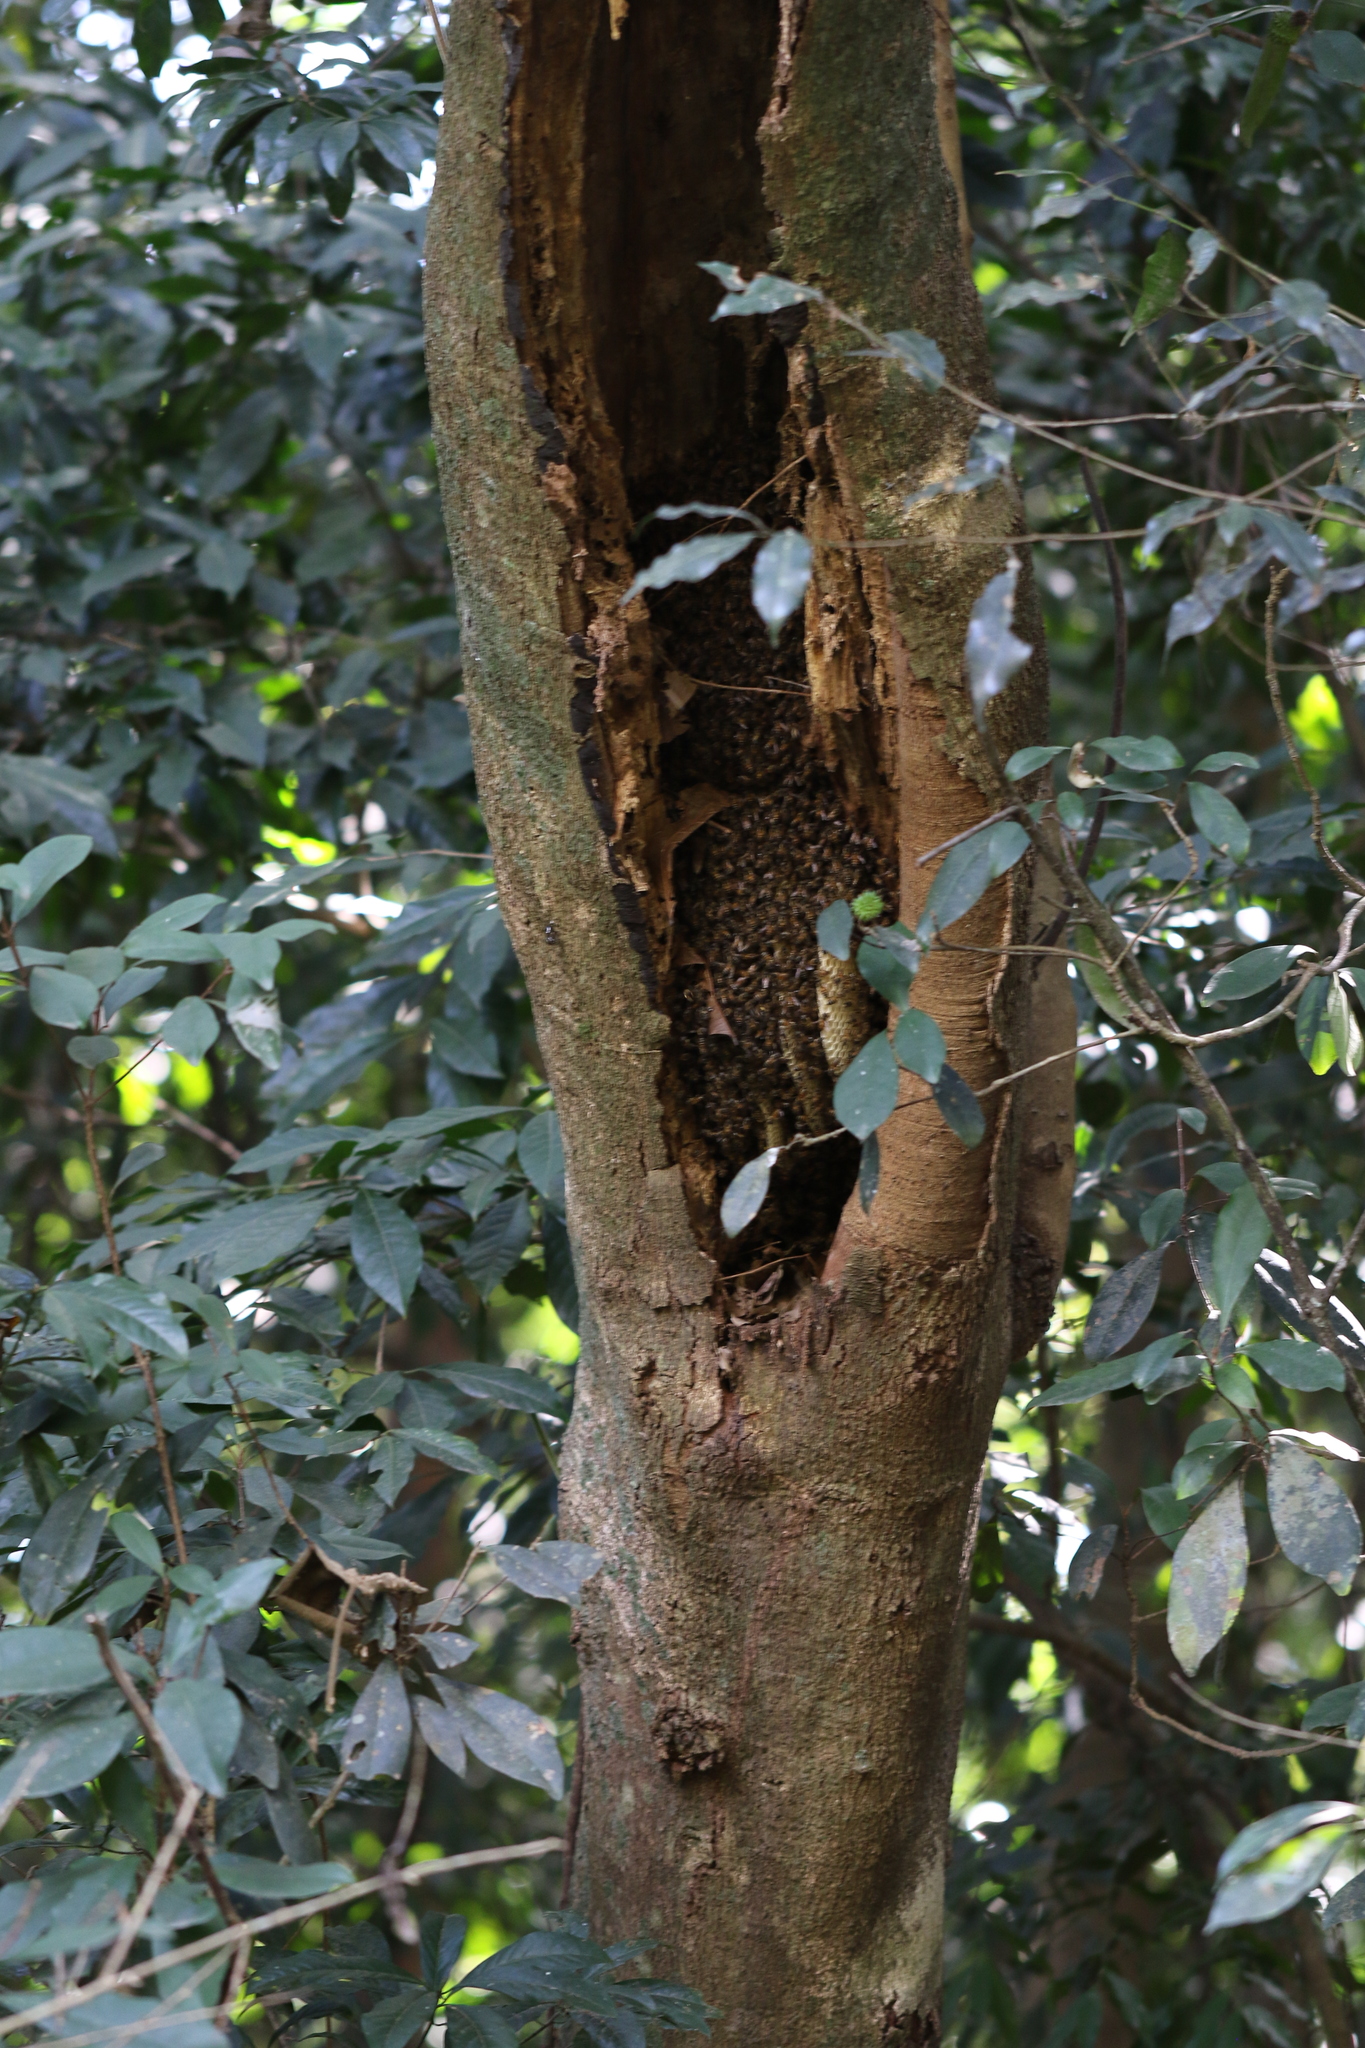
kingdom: Animalia
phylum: Arthropoda
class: Insecta
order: Hymenoptera
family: Apidae
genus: Apis
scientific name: Apis mellifera
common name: Honey bee
